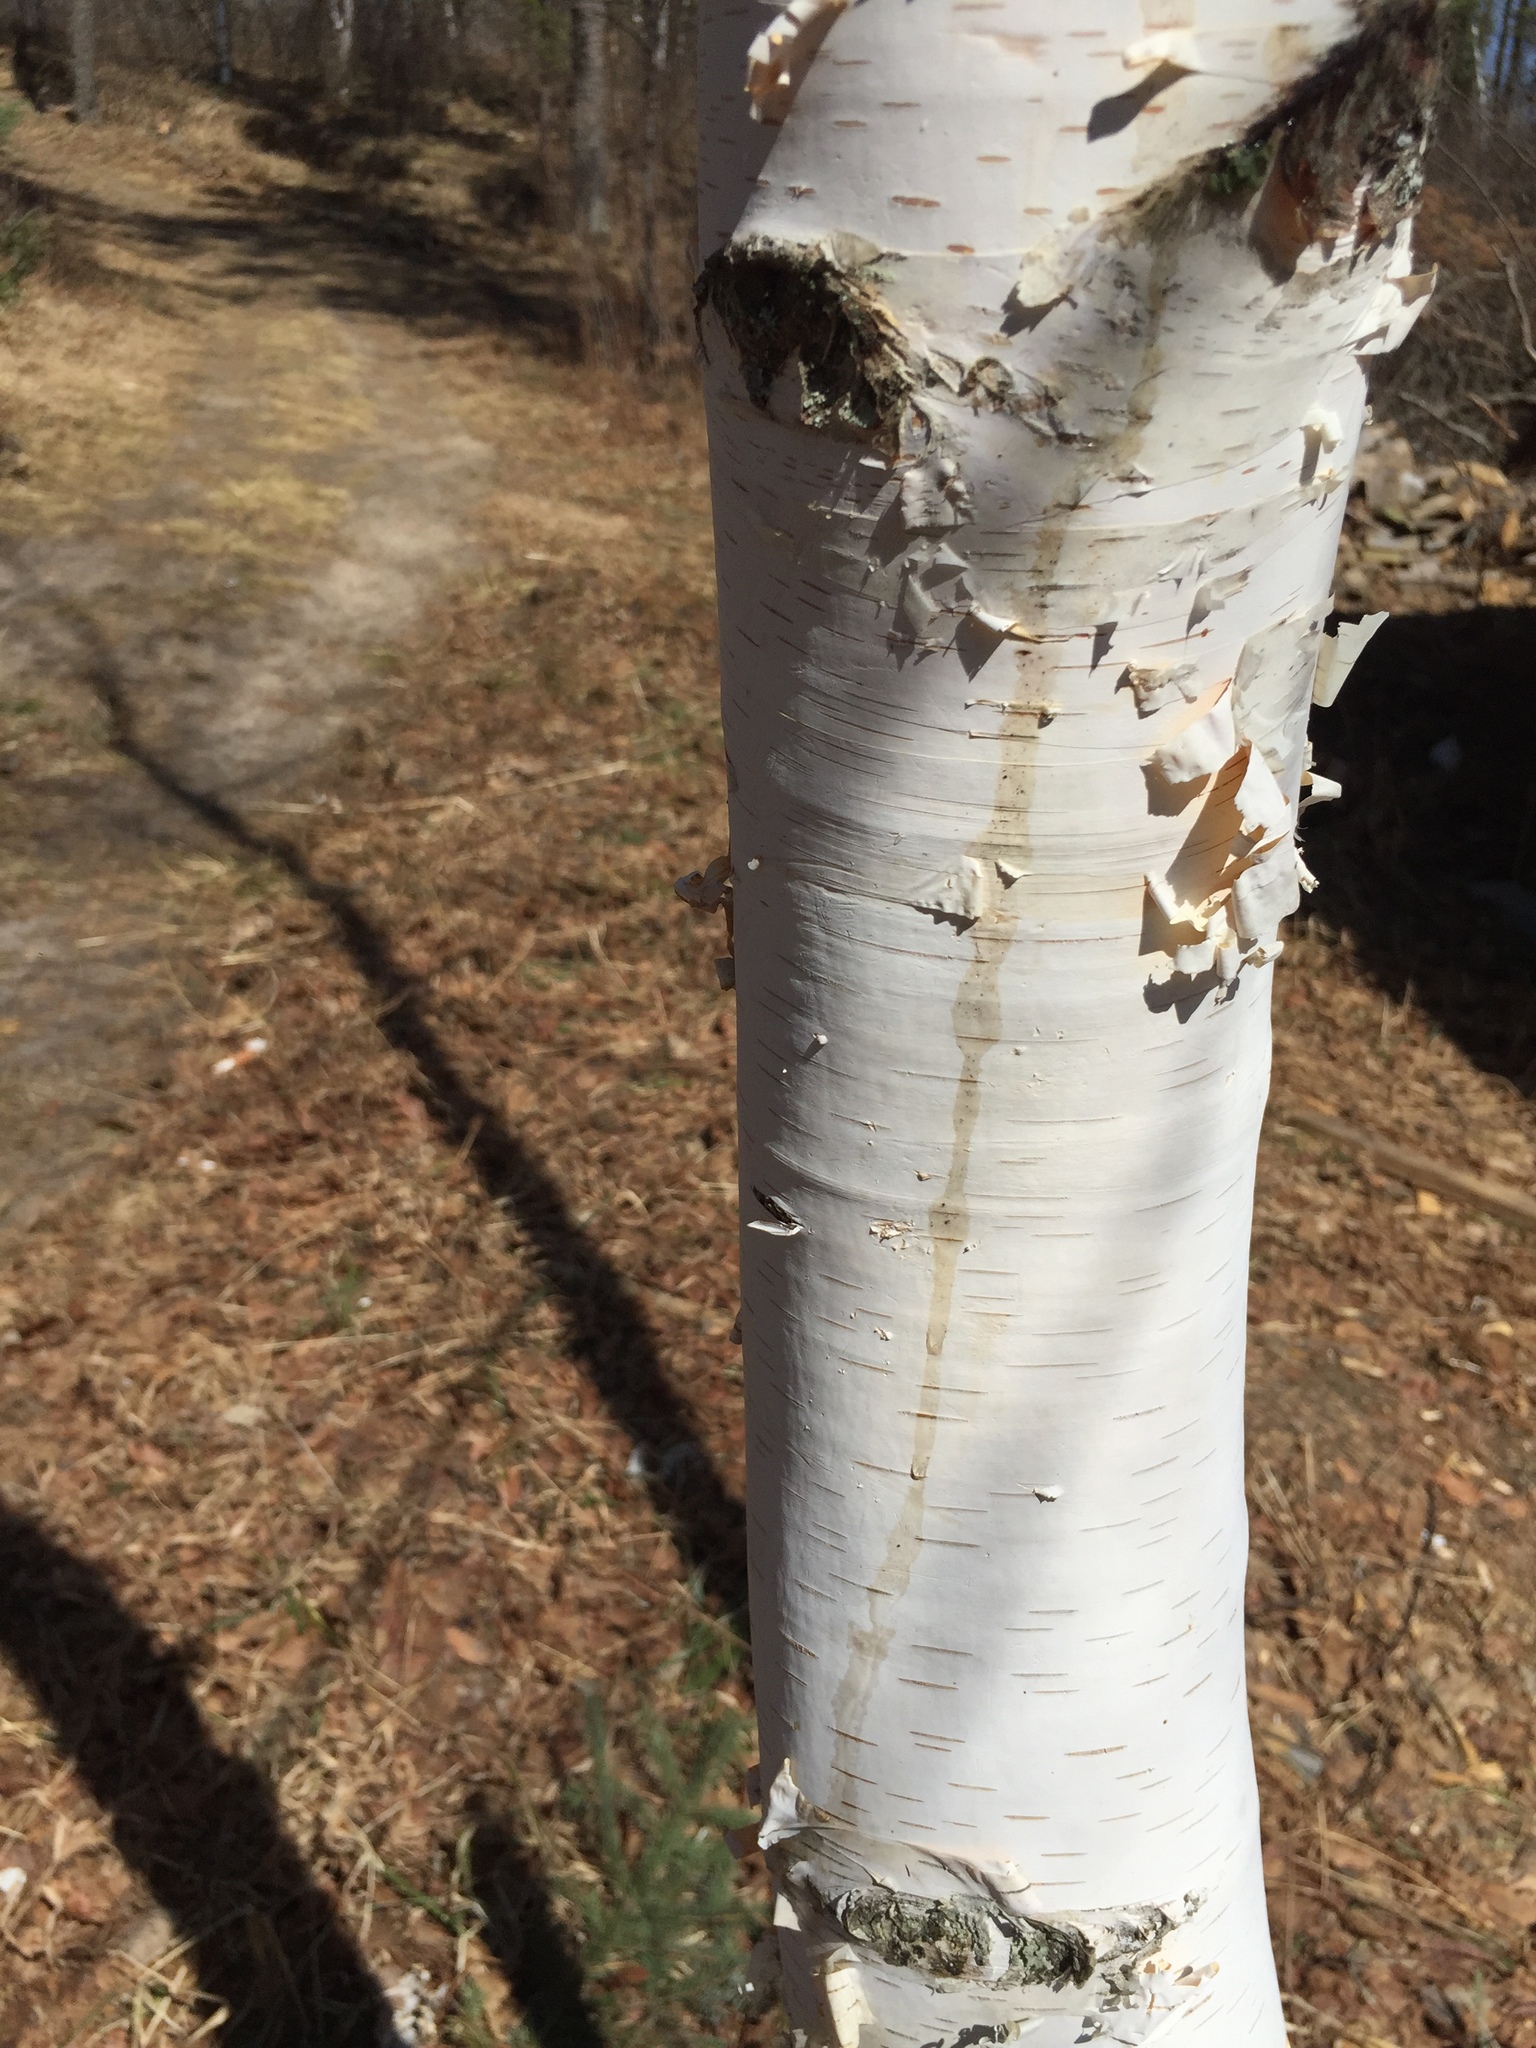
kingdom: Plantae
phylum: Tracheophyta
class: Magnoliopsida
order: Fagales
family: Betulaceae
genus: Betula
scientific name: Betula papyrifera
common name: Paper birch
